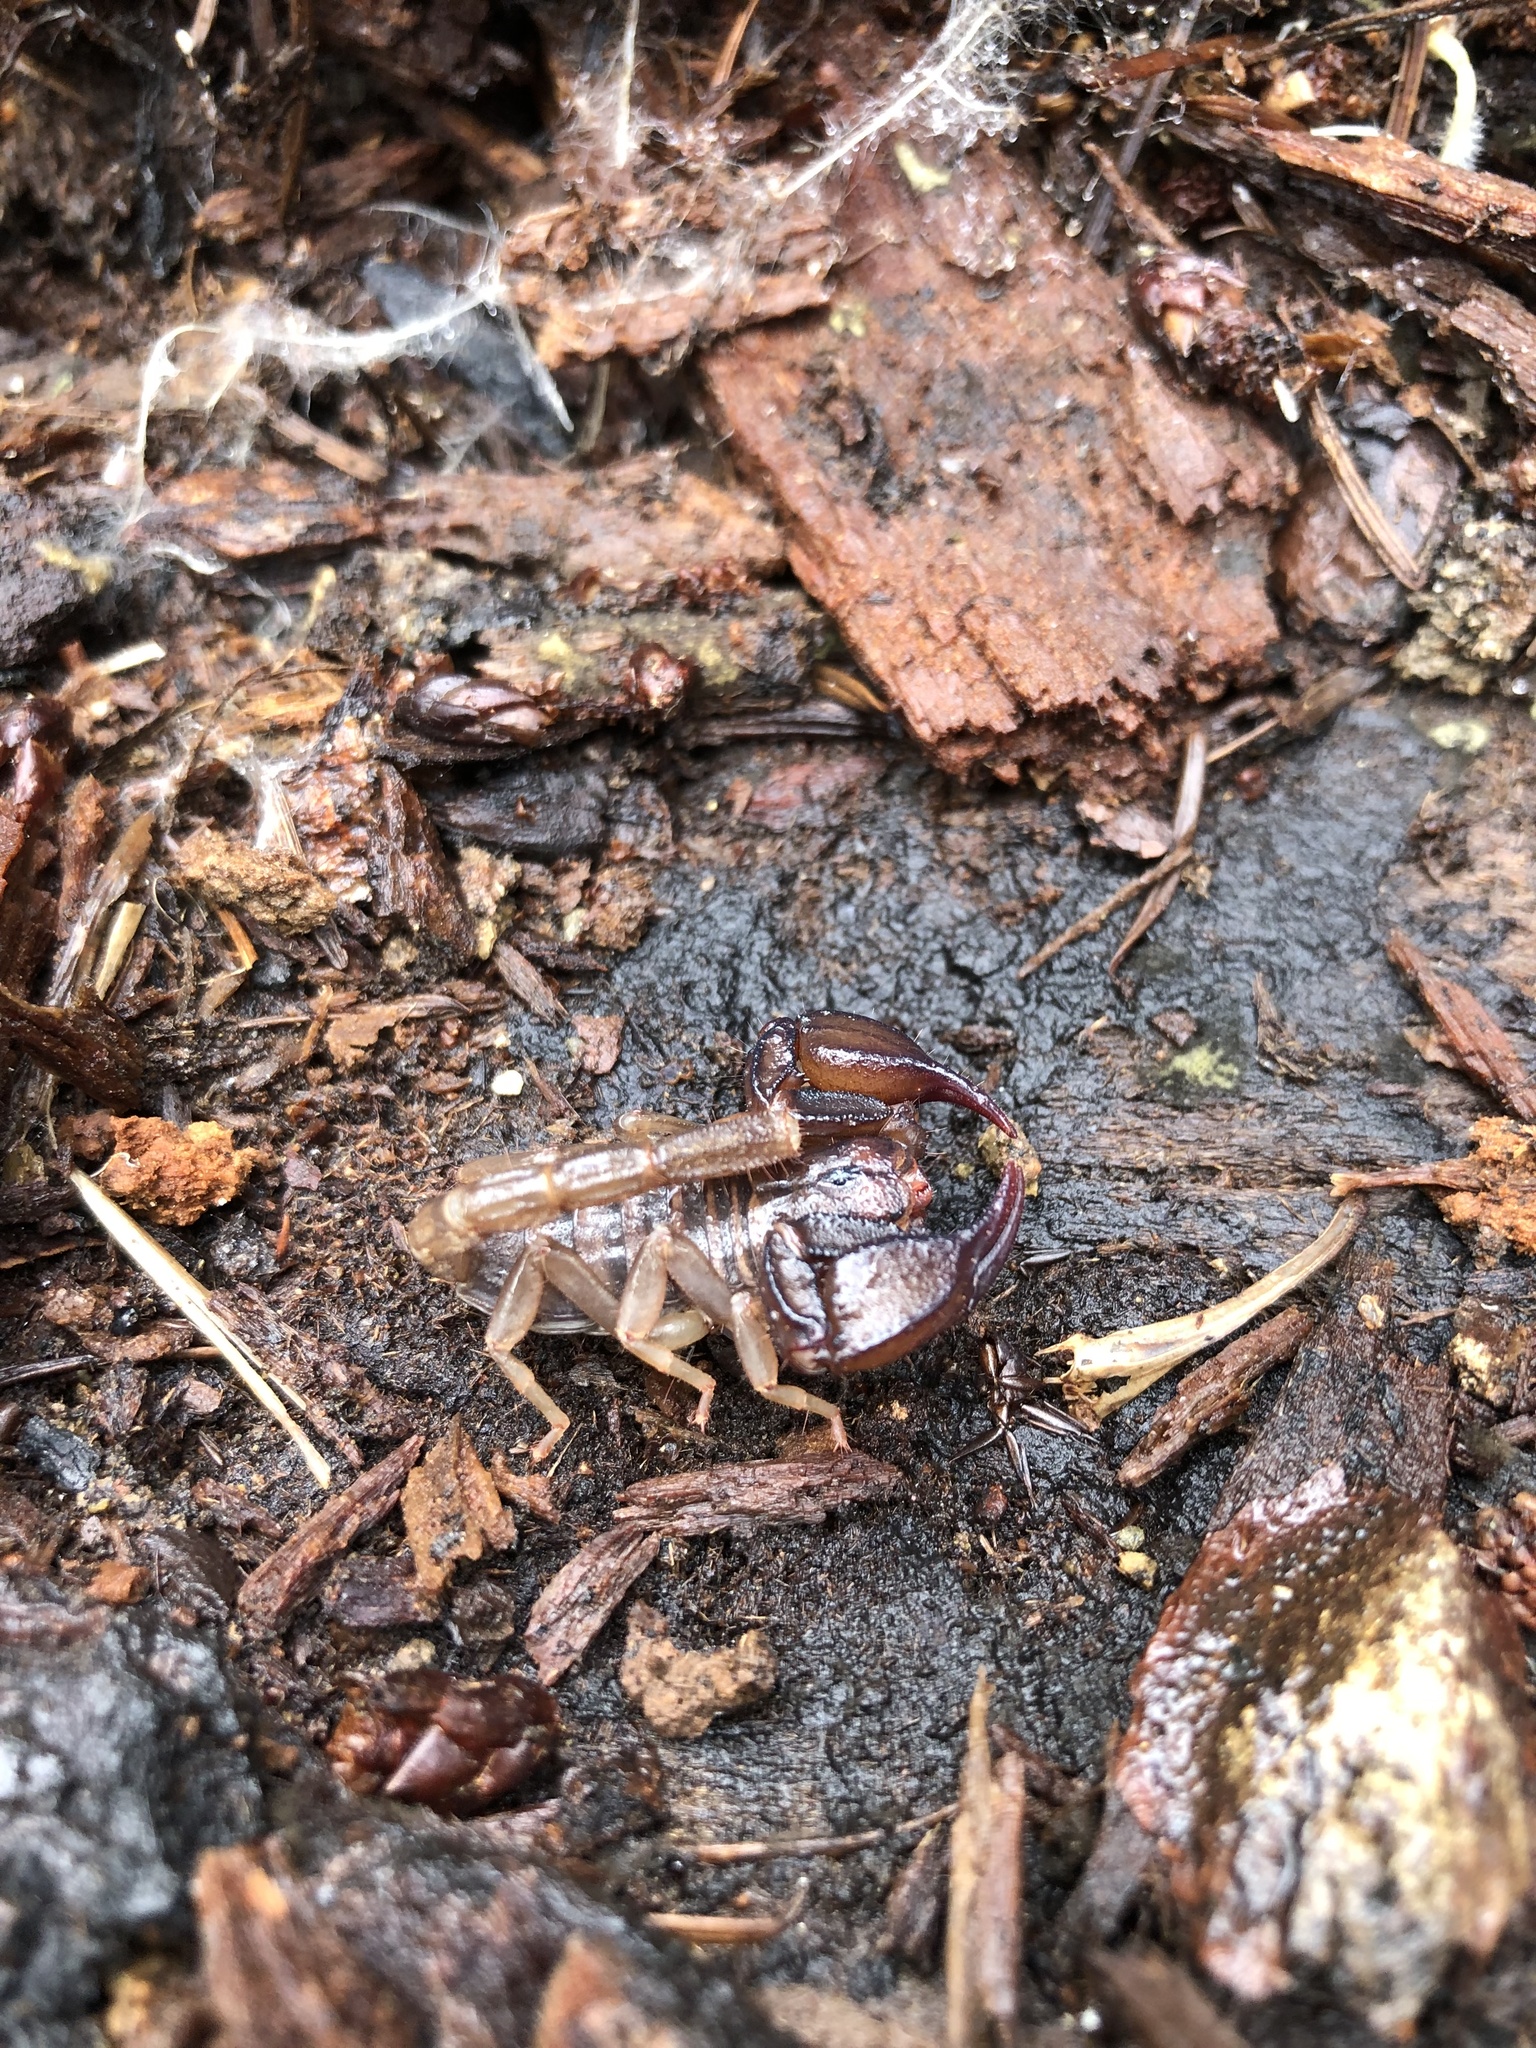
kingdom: Animalia
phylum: Arthropoda
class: Arachnida
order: Scorpiones
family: Chactidae
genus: Uroctonus
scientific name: Uroctonus mordax
